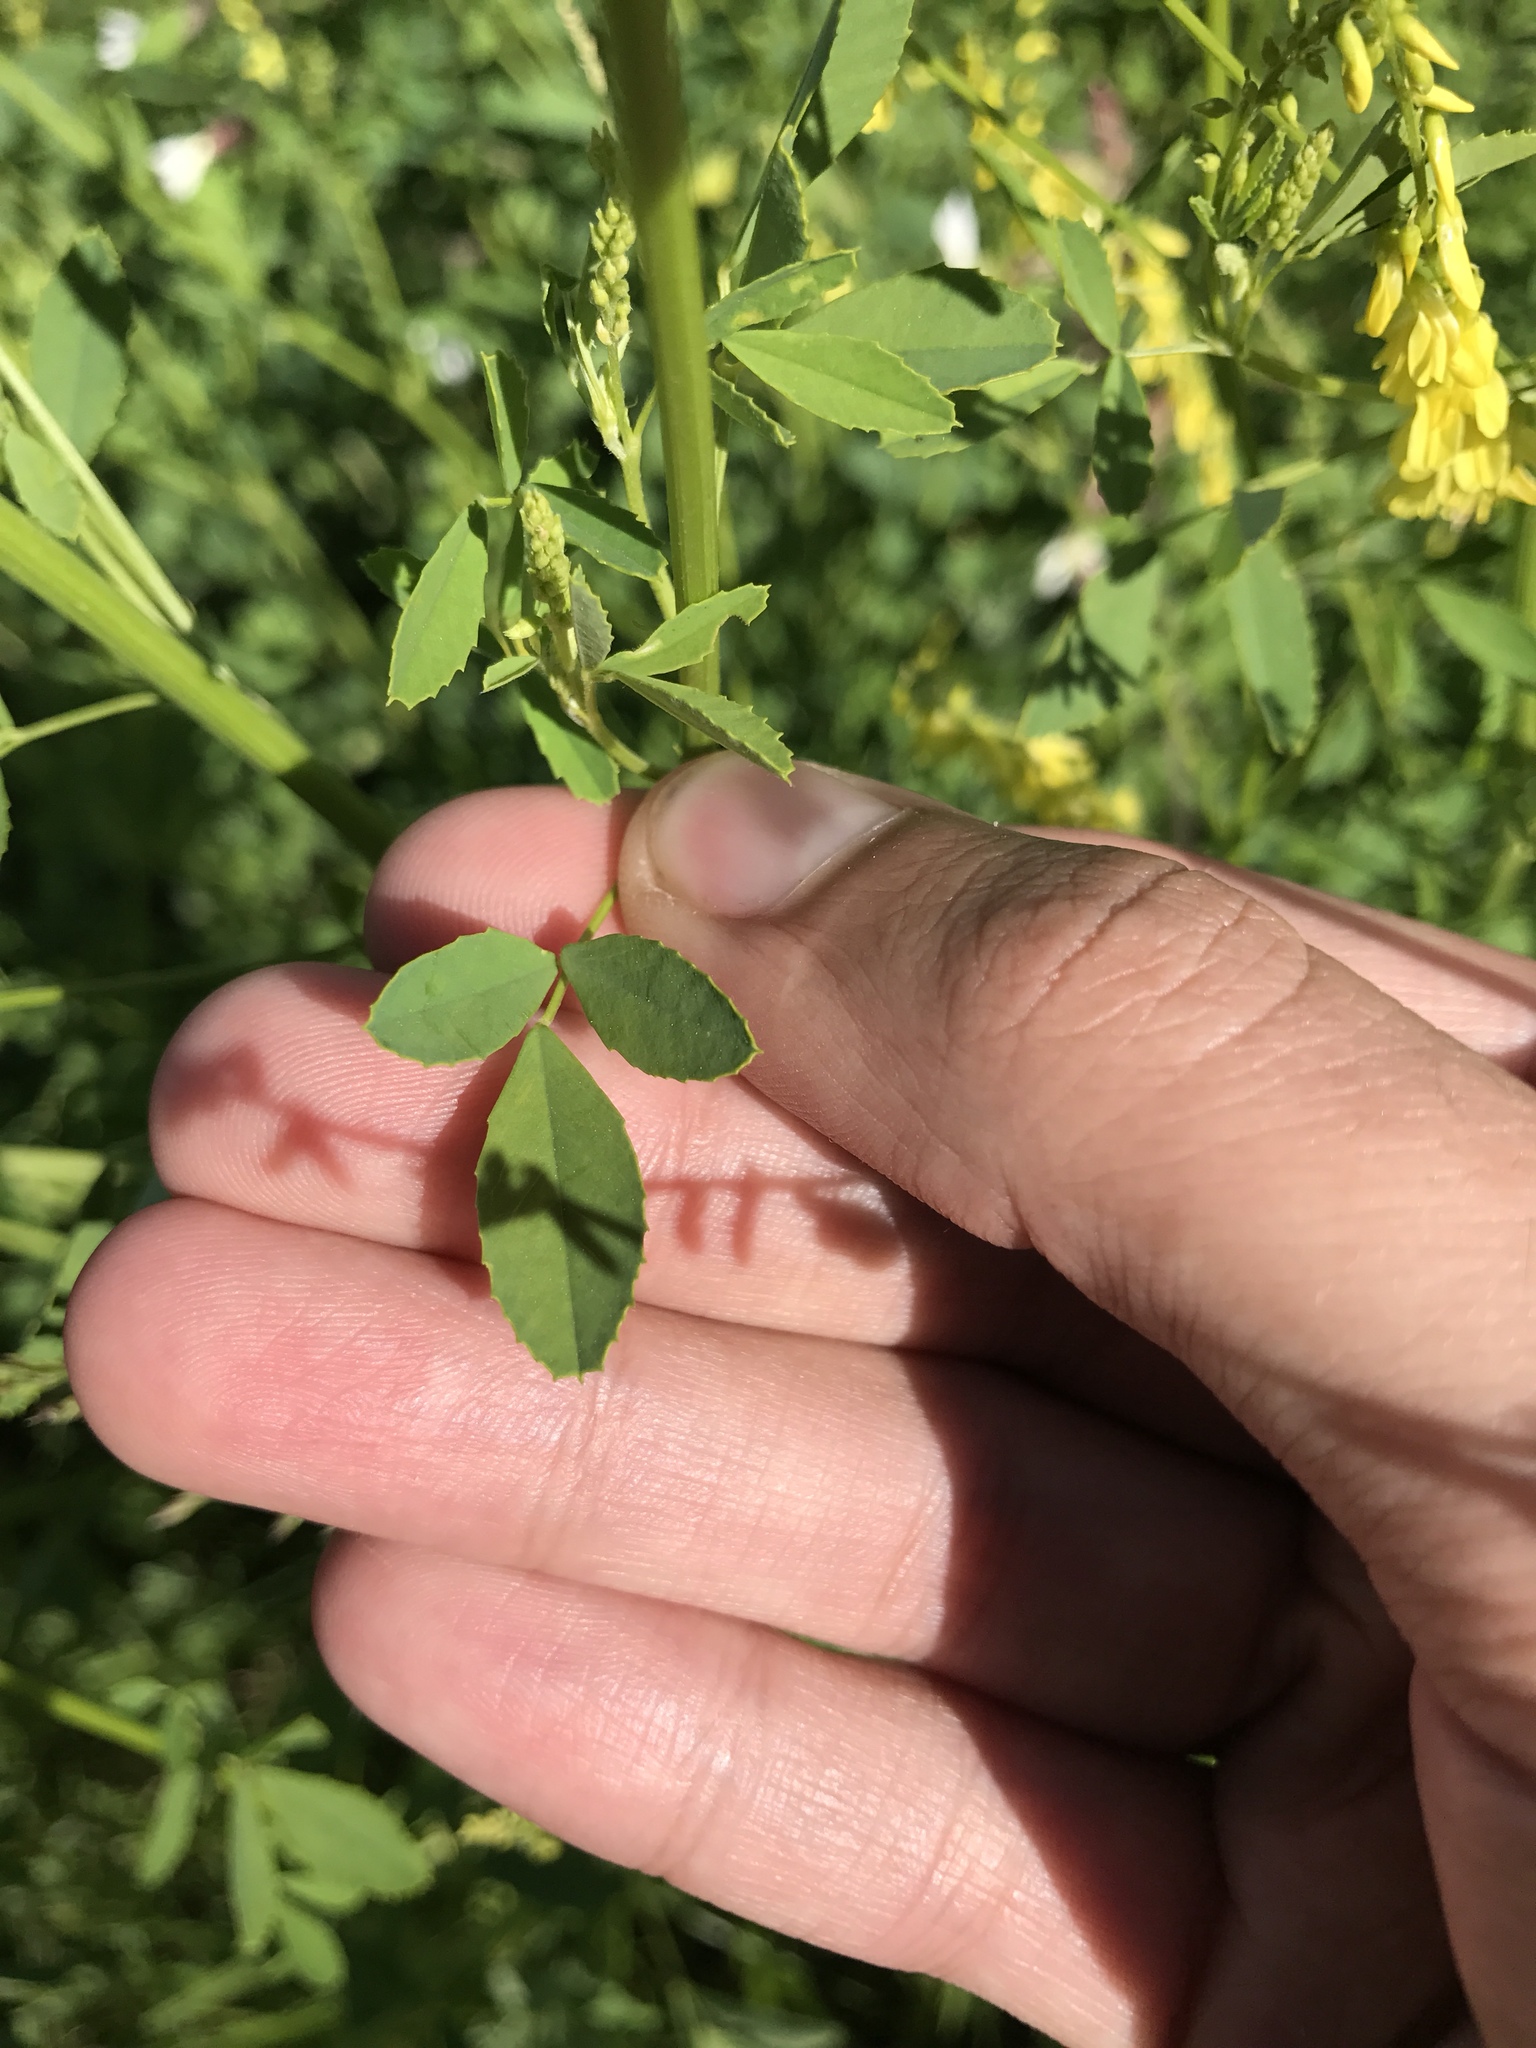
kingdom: Plantae
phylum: Tracheophyta
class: Magnoliopsida
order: Fabales
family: Fabaceae
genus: Melilotus
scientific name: Melilotus officinalis
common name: Sweetclover
